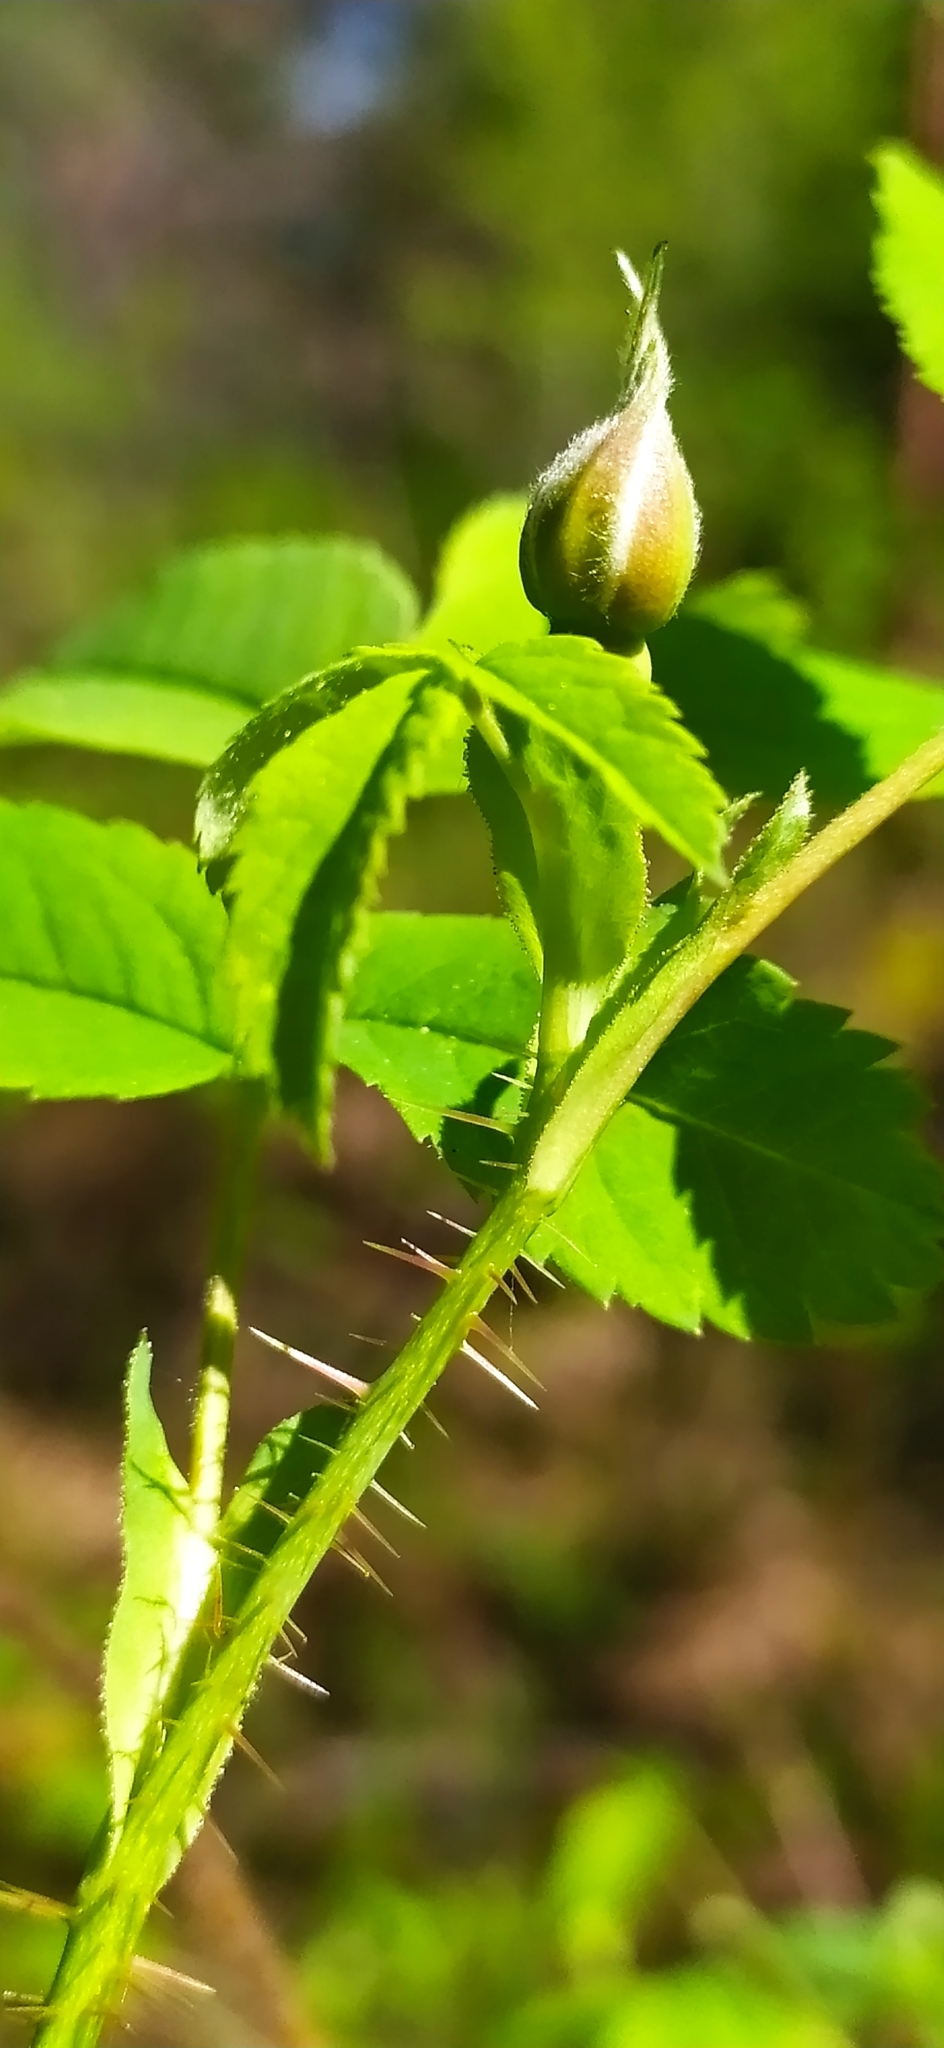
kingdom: Plantae
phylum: Tracheophyta
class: Magnoliopsida
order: Rosales
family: Rosaceae
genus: Rosa
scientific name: Rosa acicularis
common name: Prickly rose
